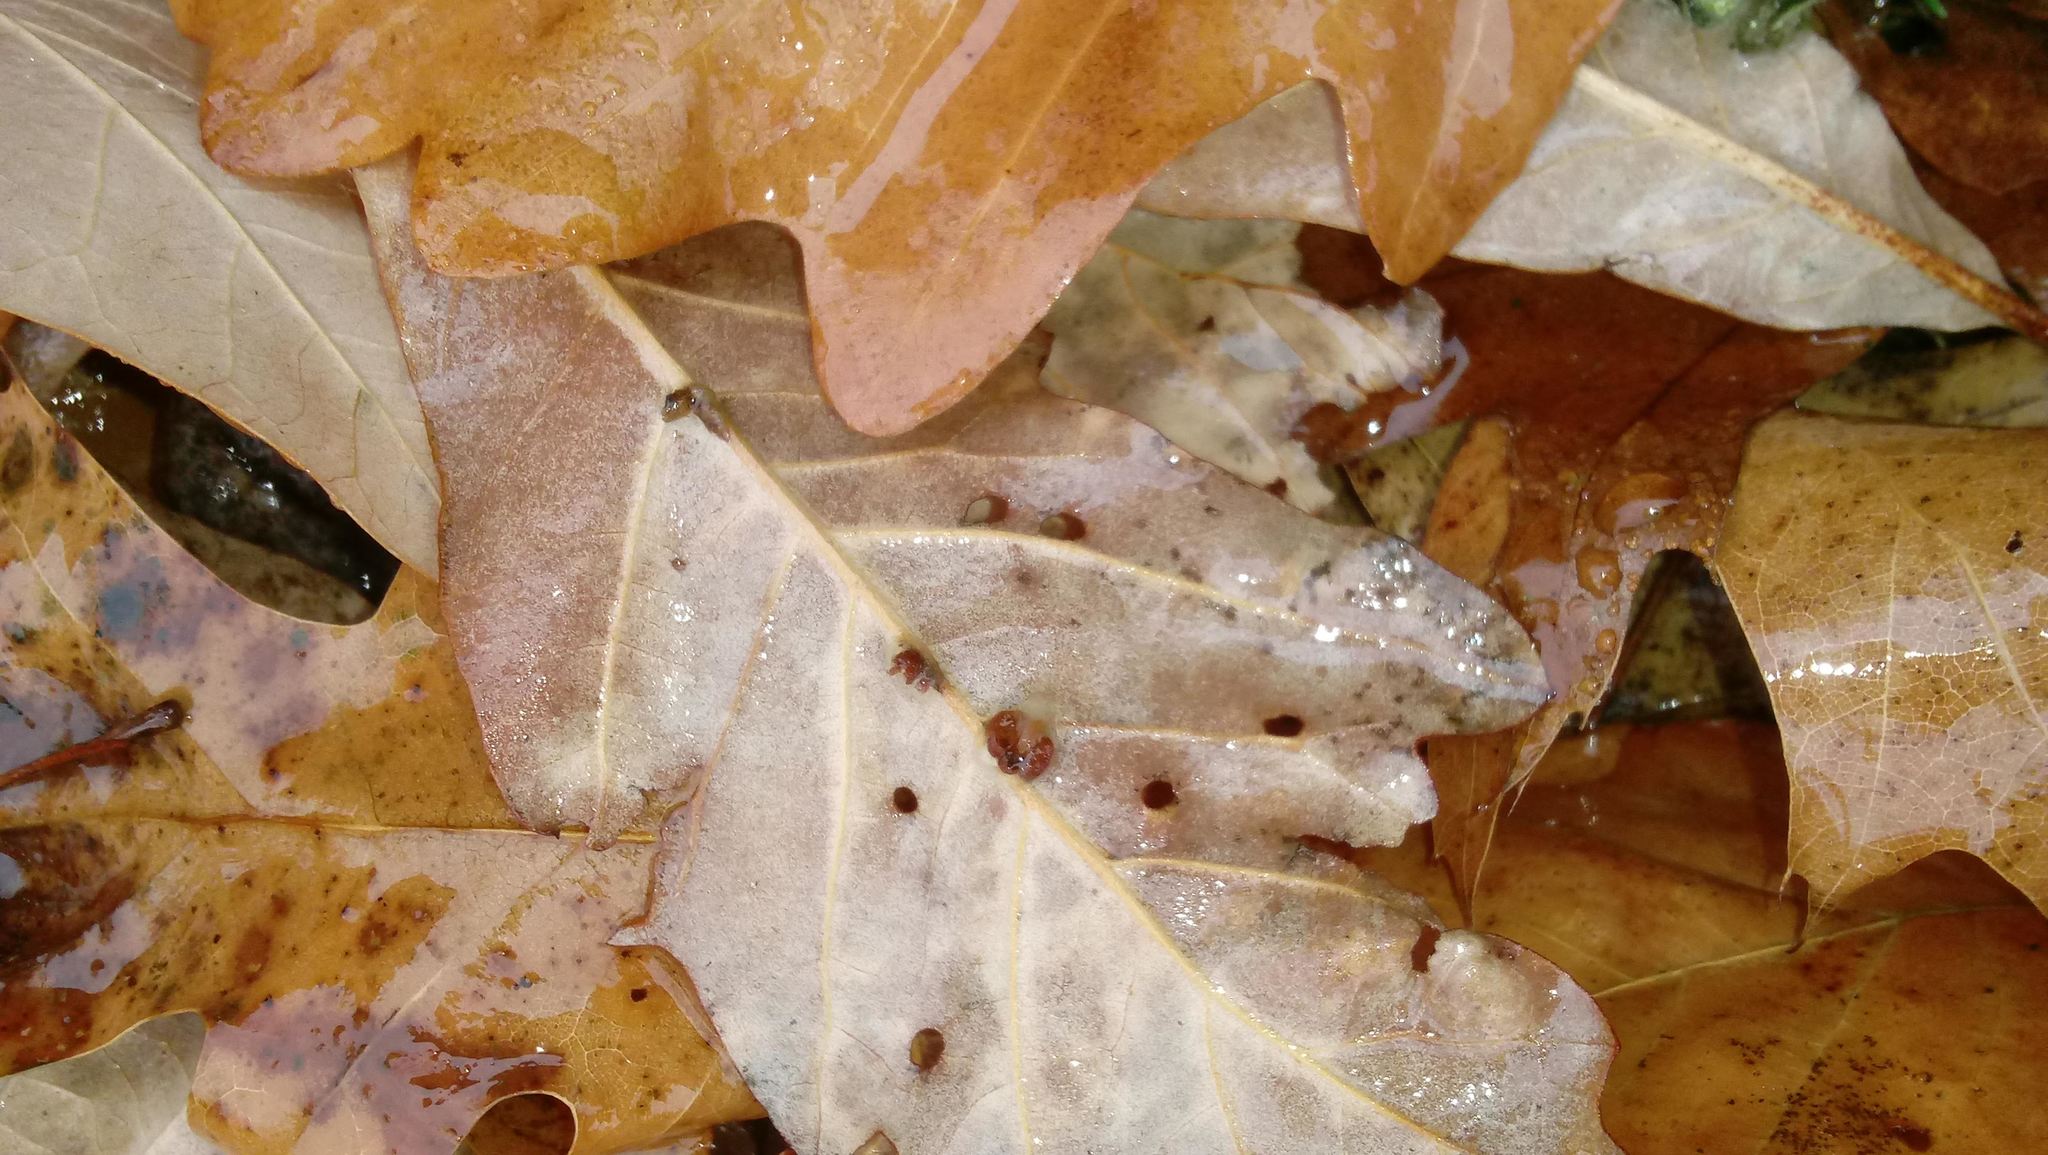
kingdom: Animalia
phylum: Arthropoda
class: Insecta
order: Hymenoptera
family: Cynipidae
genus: Andricus
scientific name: Andricus Druon ignotum
